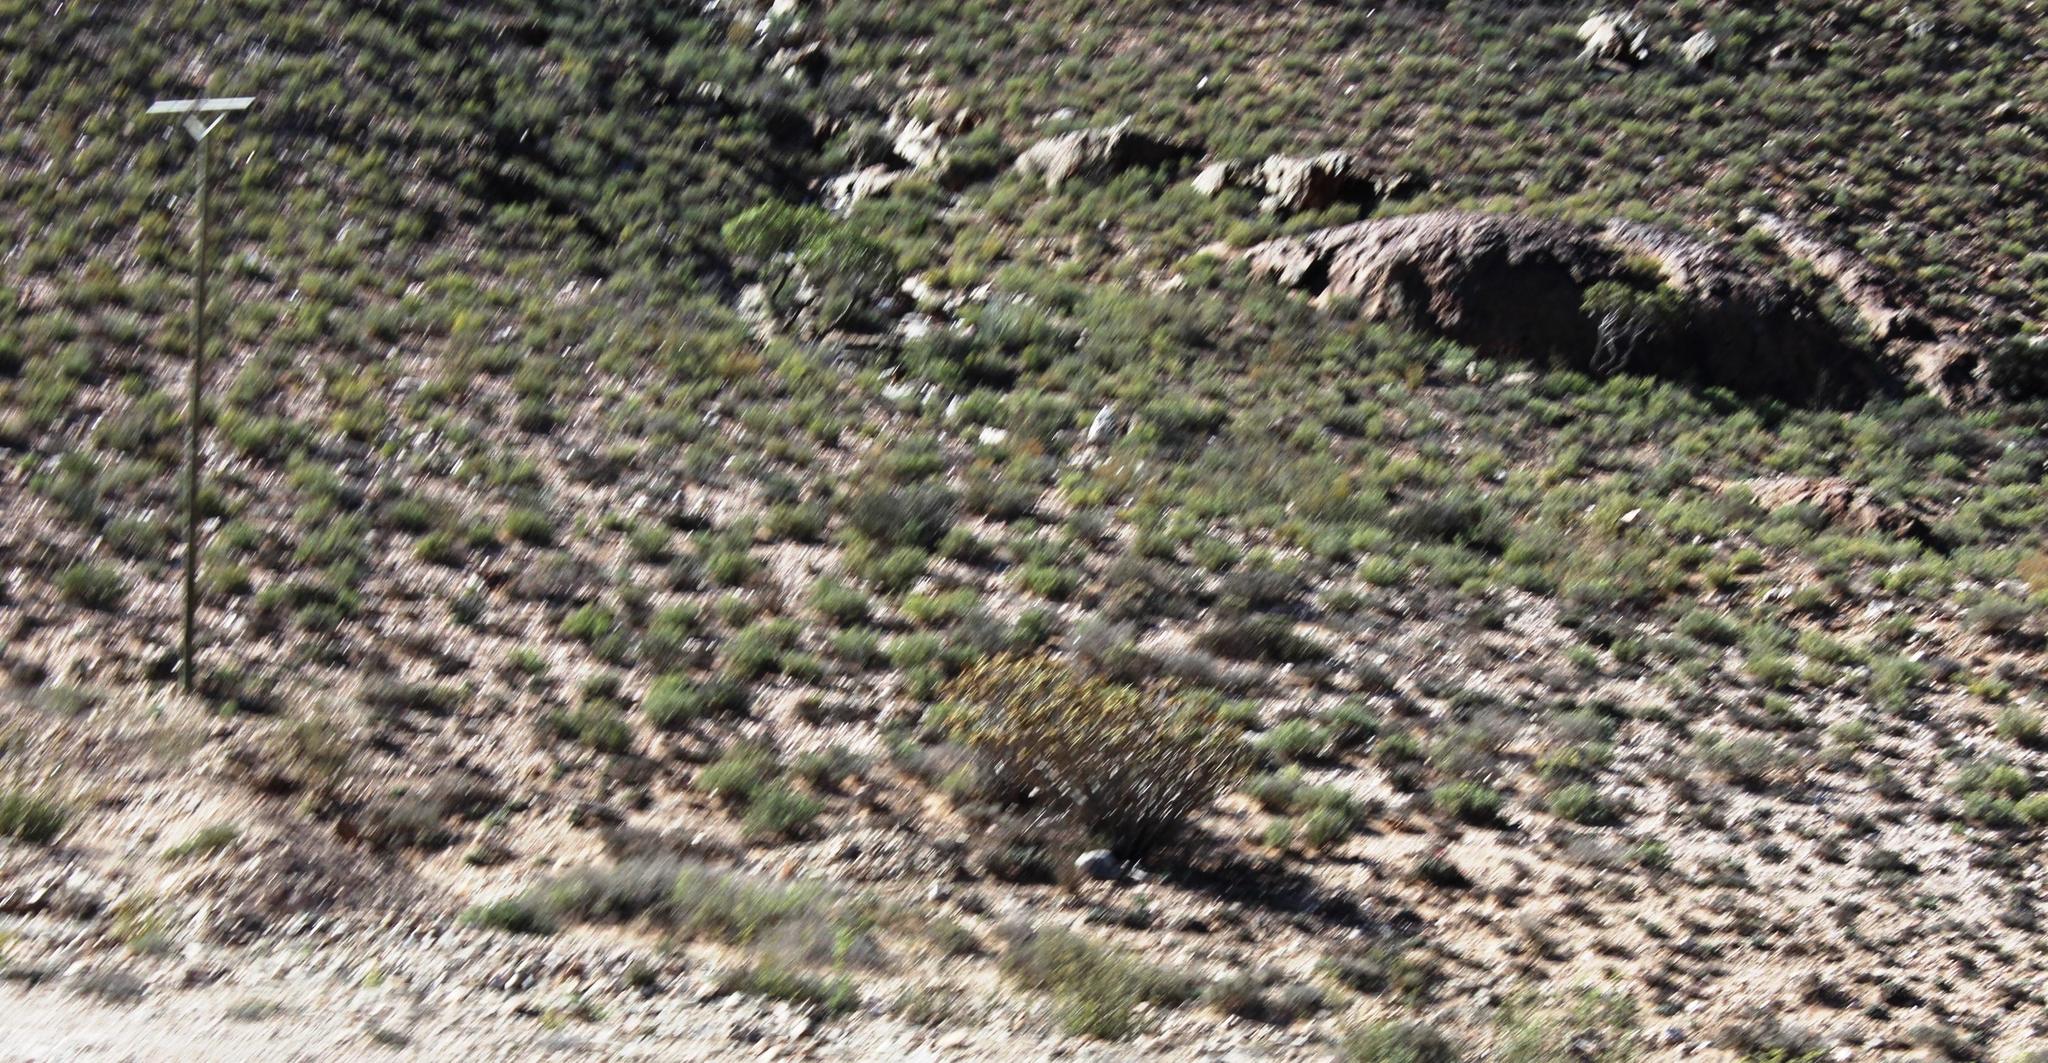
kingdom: Plantae
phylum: Tracheophyta
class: Liliopsida
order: Asparagales
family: Asphodelaceae
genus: Aloidendron
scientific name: Aloidendron ramosissimum
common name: Bush quiver tree
